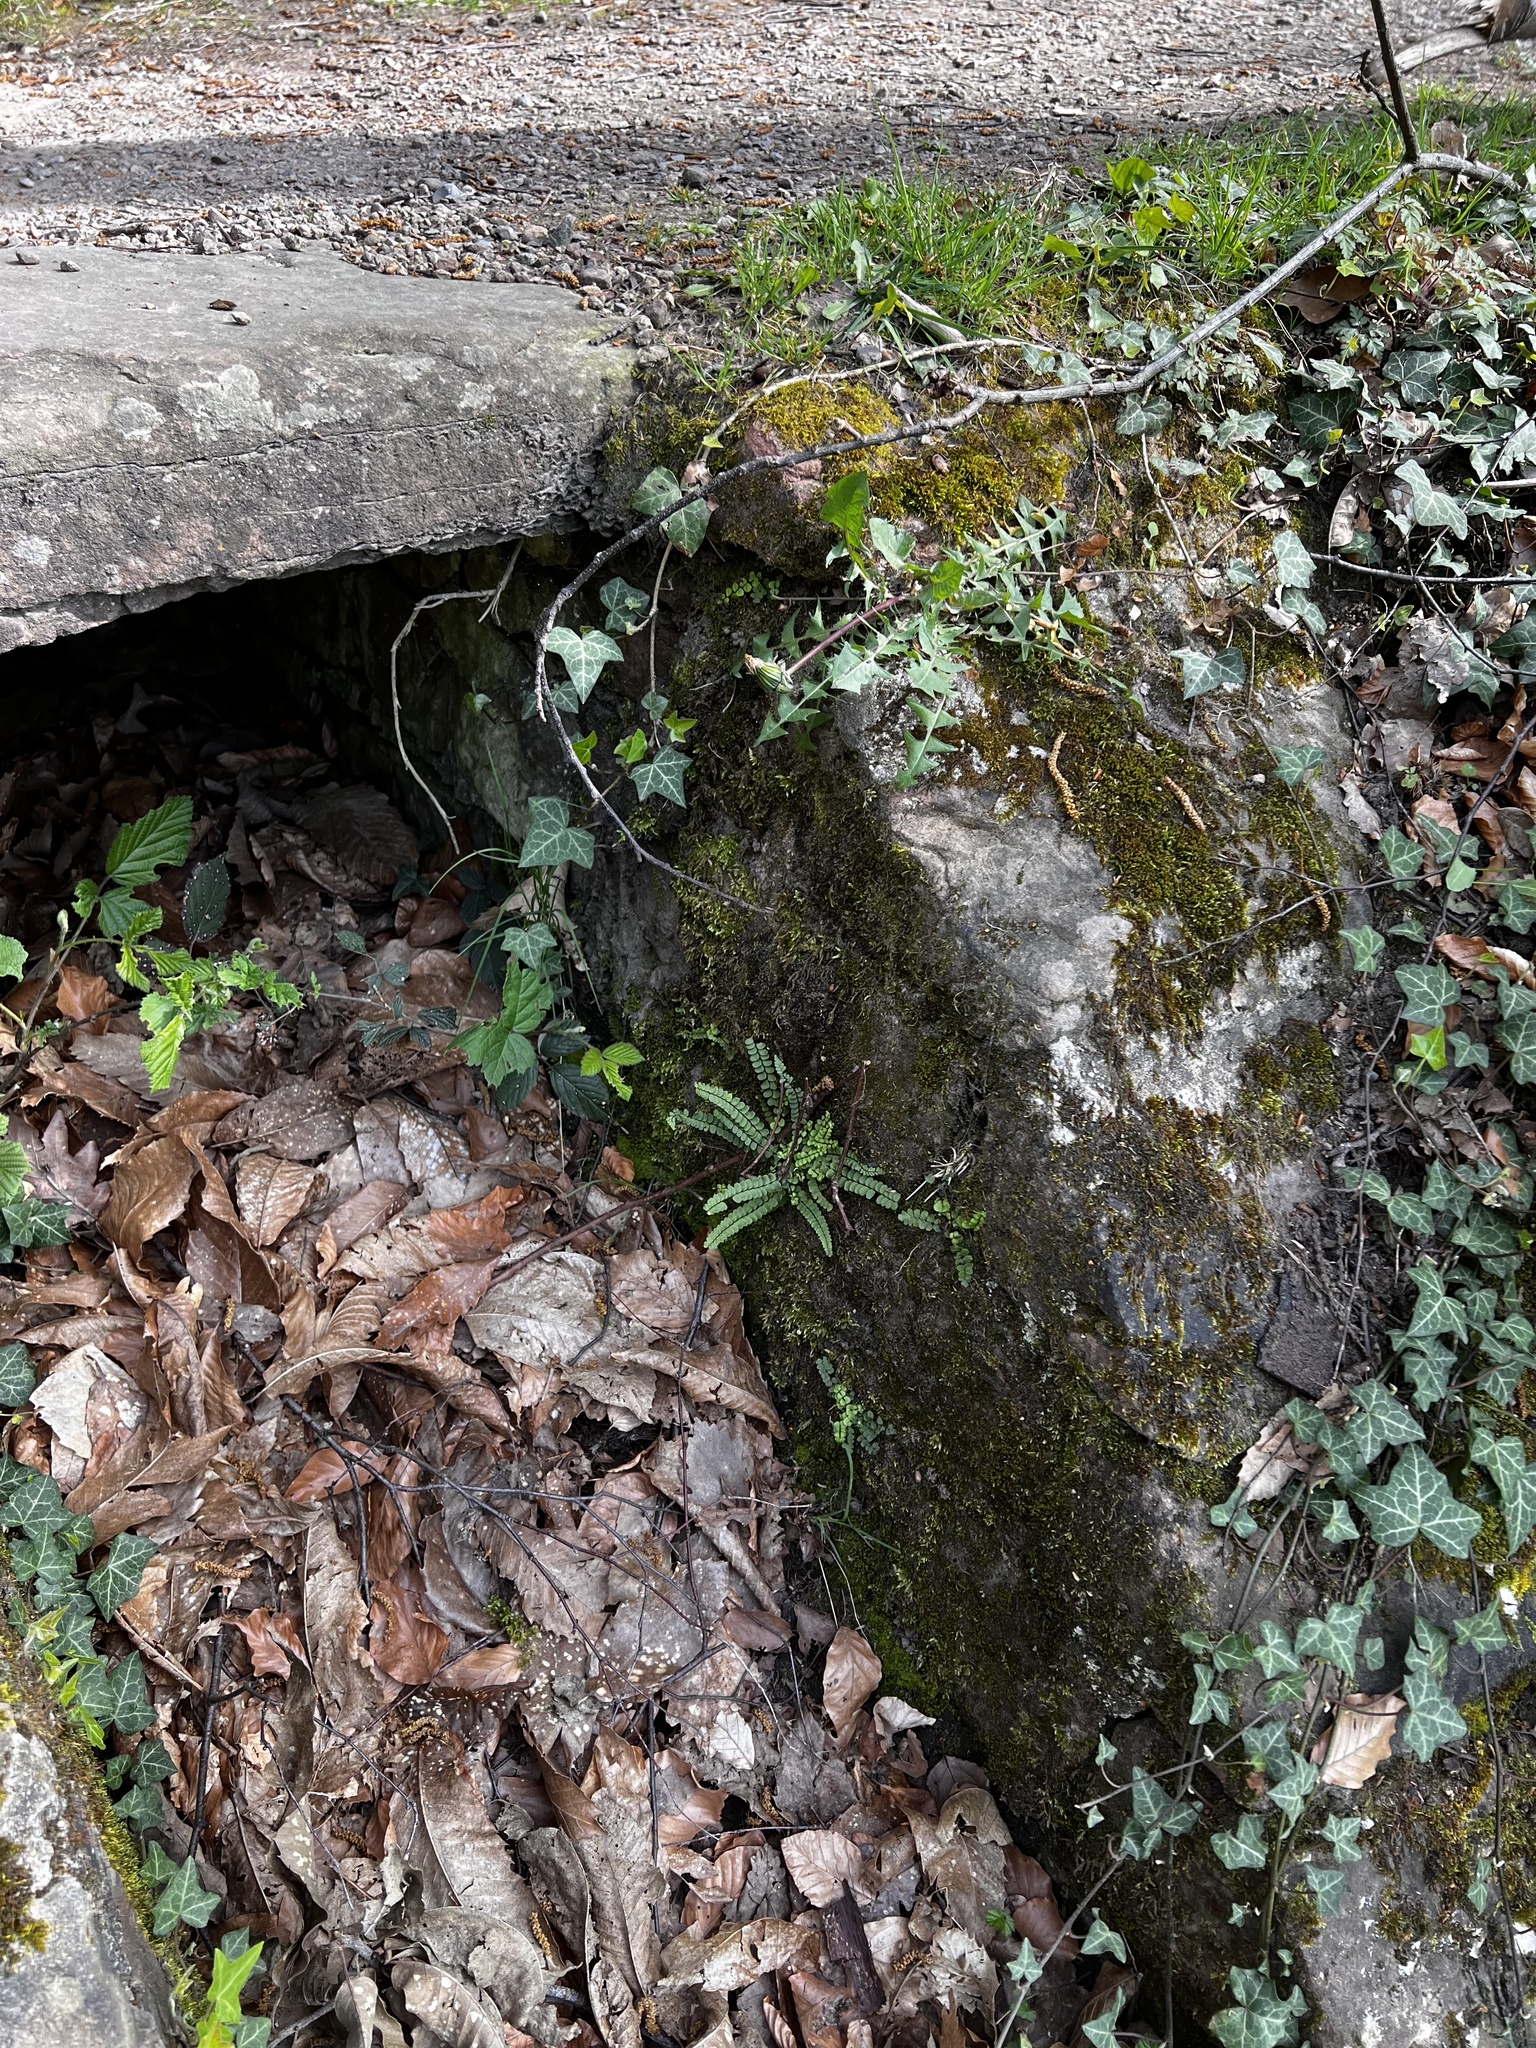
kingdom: Plantae
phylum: Tracheophyta
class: Polypodiopsida
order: Polypodiales
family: Aspleniaceae
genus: Asplenium
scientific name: Asplenium trichomanes
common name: Maidenhair spleenwort
